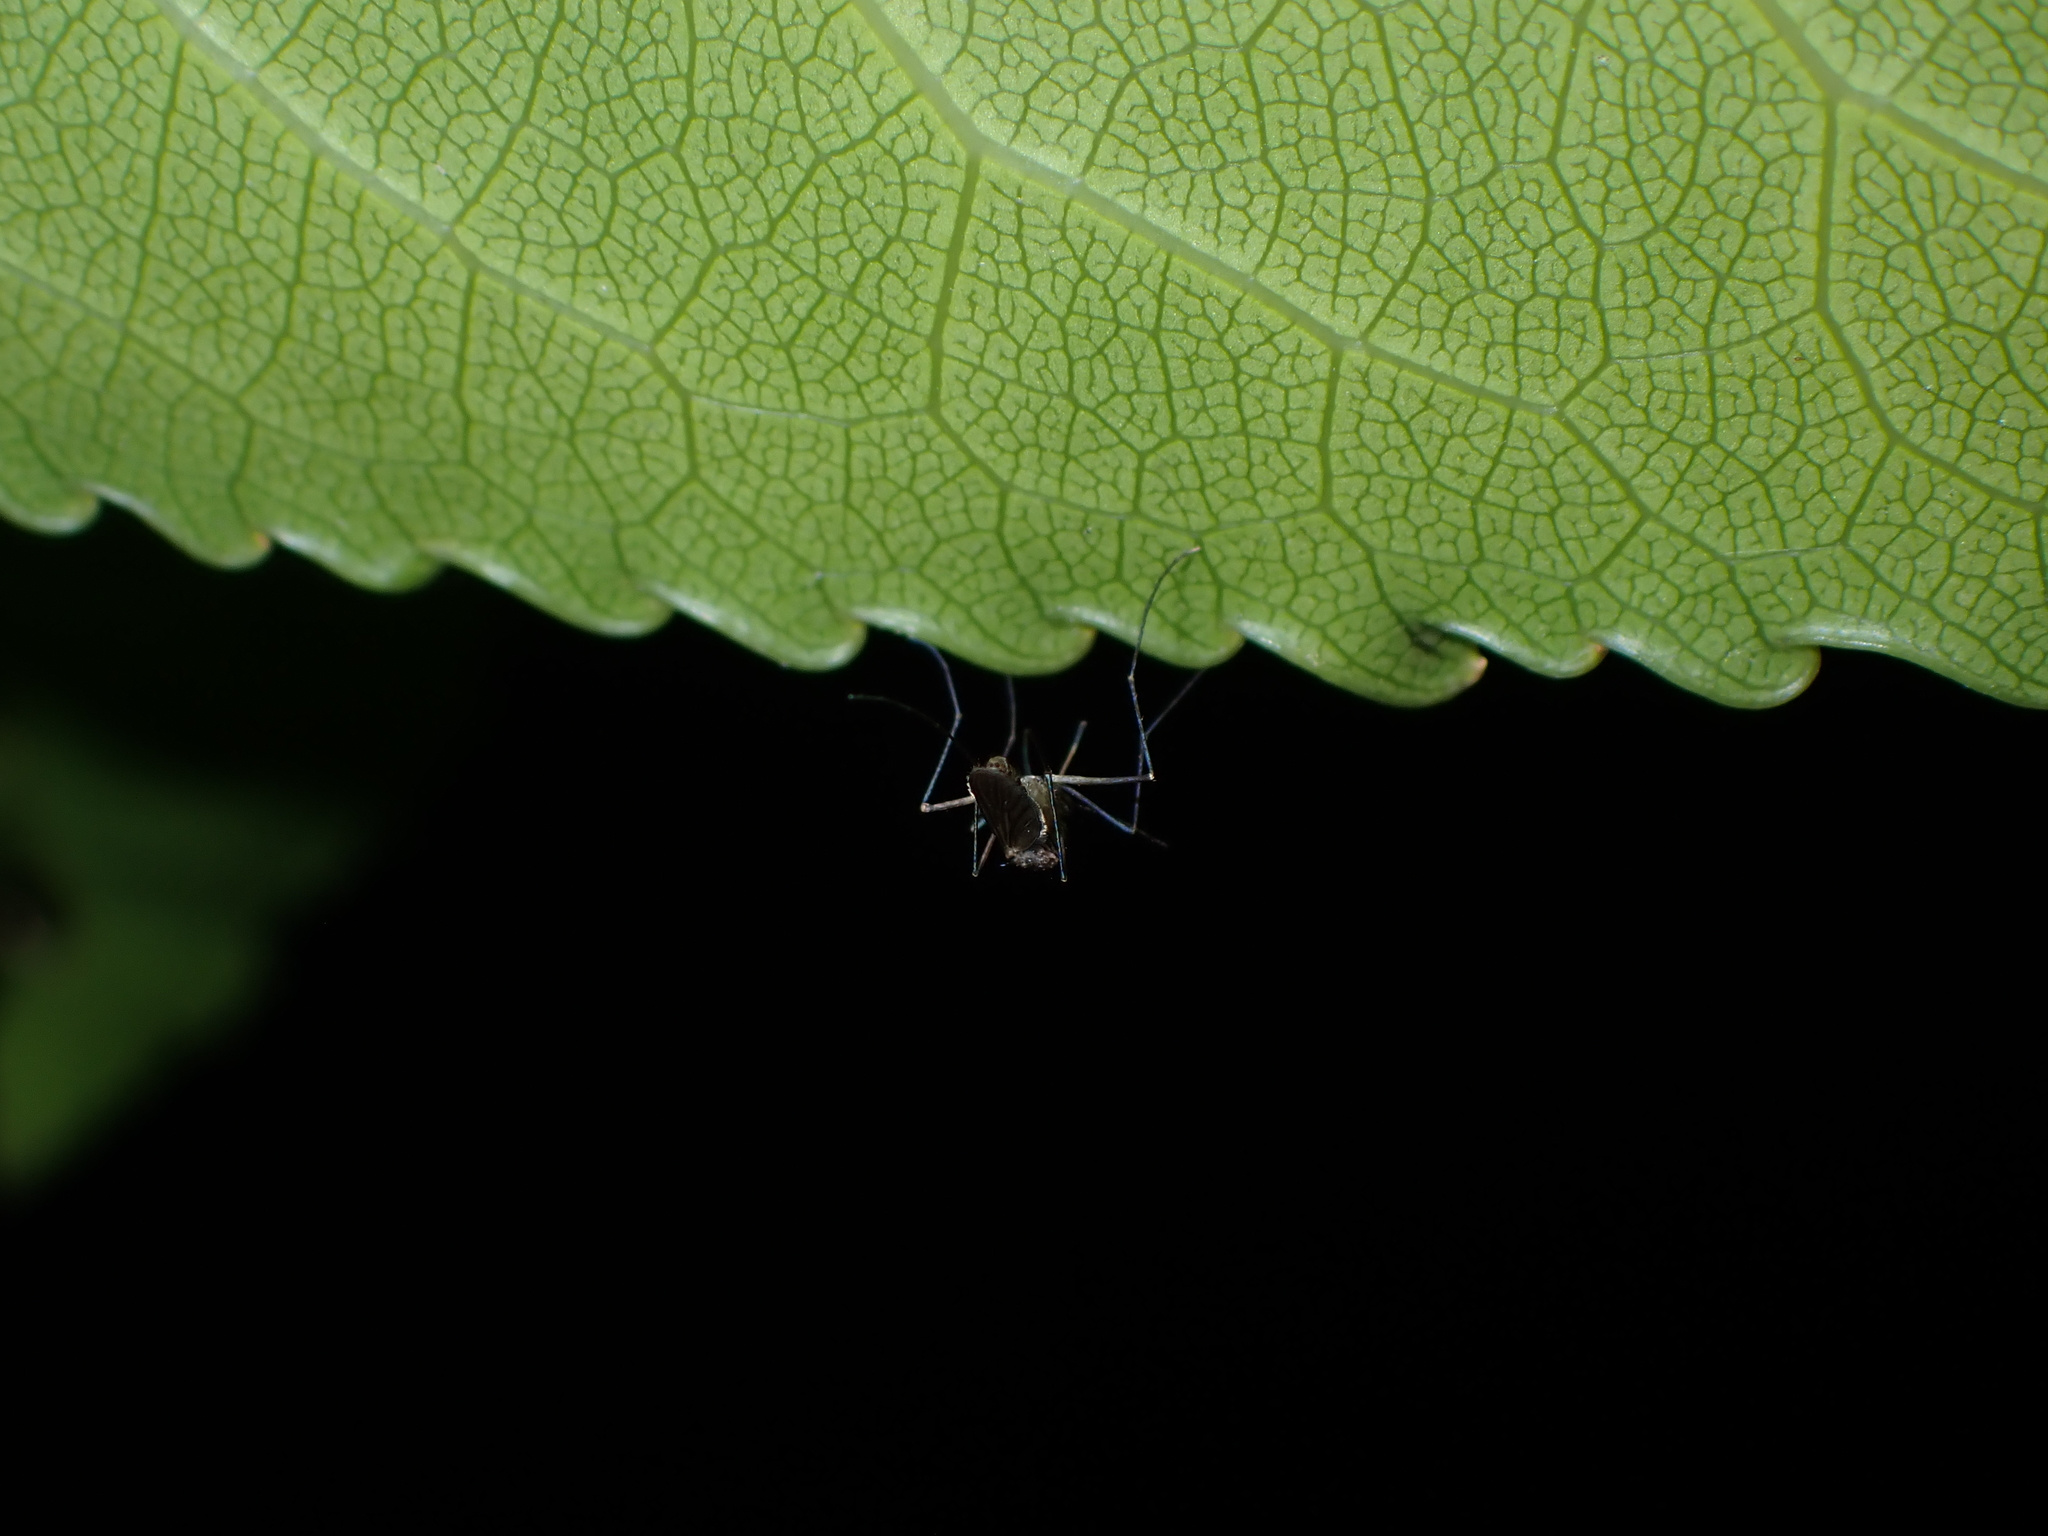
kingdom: Animalia
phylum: Arthropoda
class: Insecta
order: Diptera
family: Culicidae
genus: Culex
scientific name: Culex pervigilans
